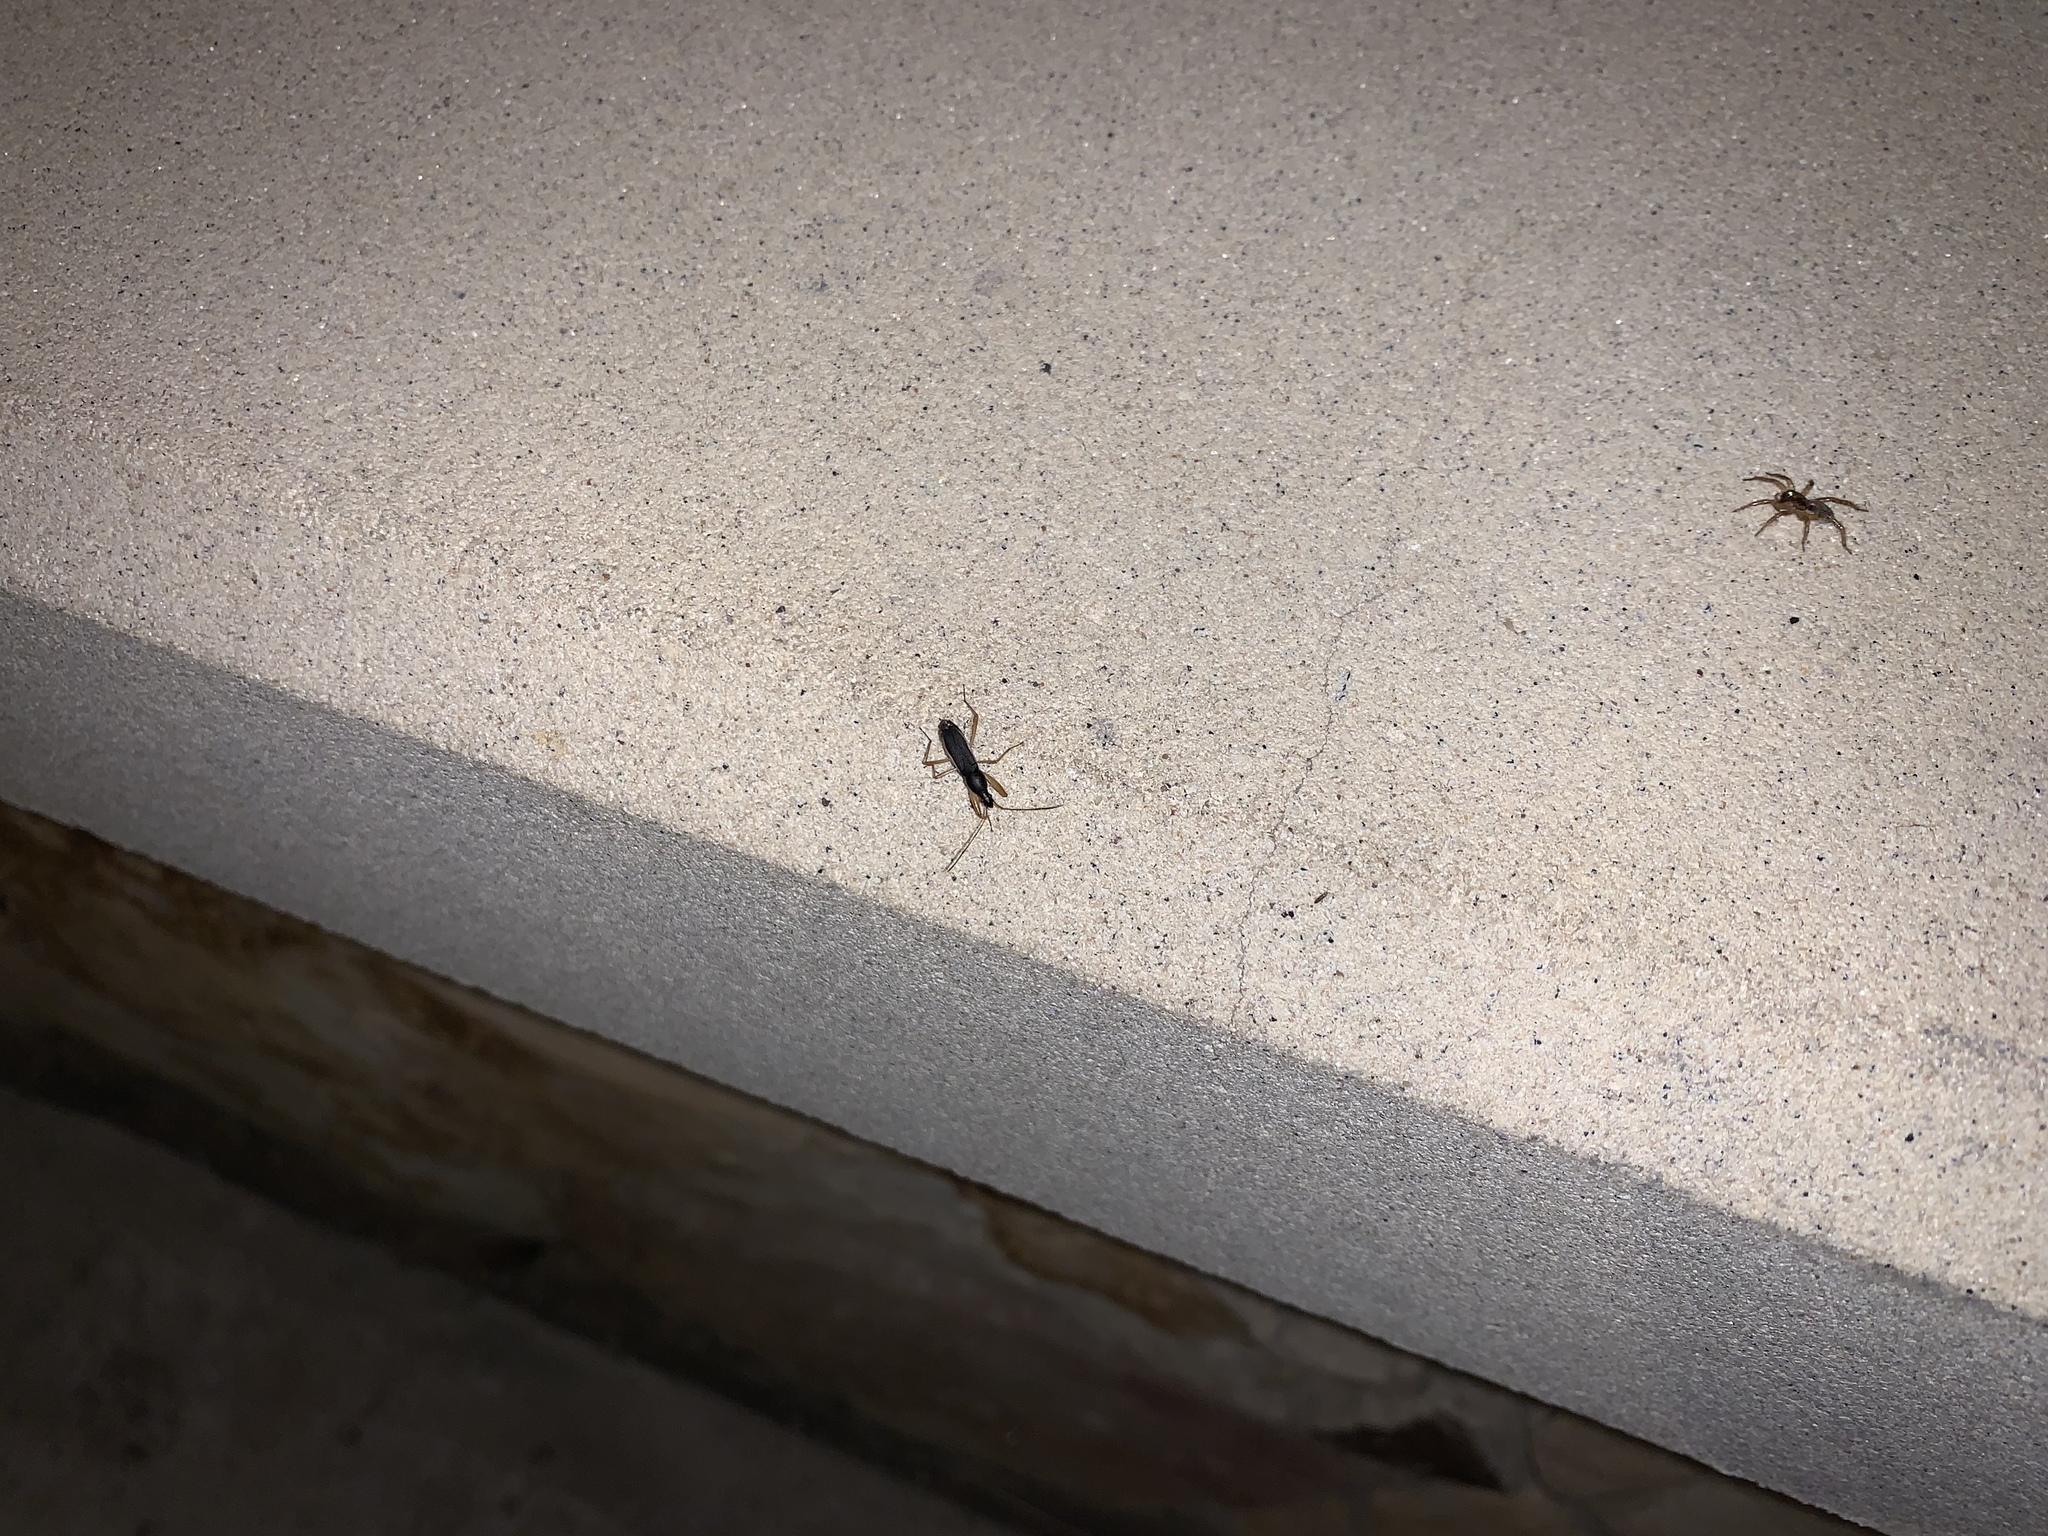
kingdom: Animalia
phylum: Arthropoda
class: Insecta
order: Hemiptera
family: Rhyparochromidae
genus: Cnemodus
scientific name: Cnemodus mavortius
